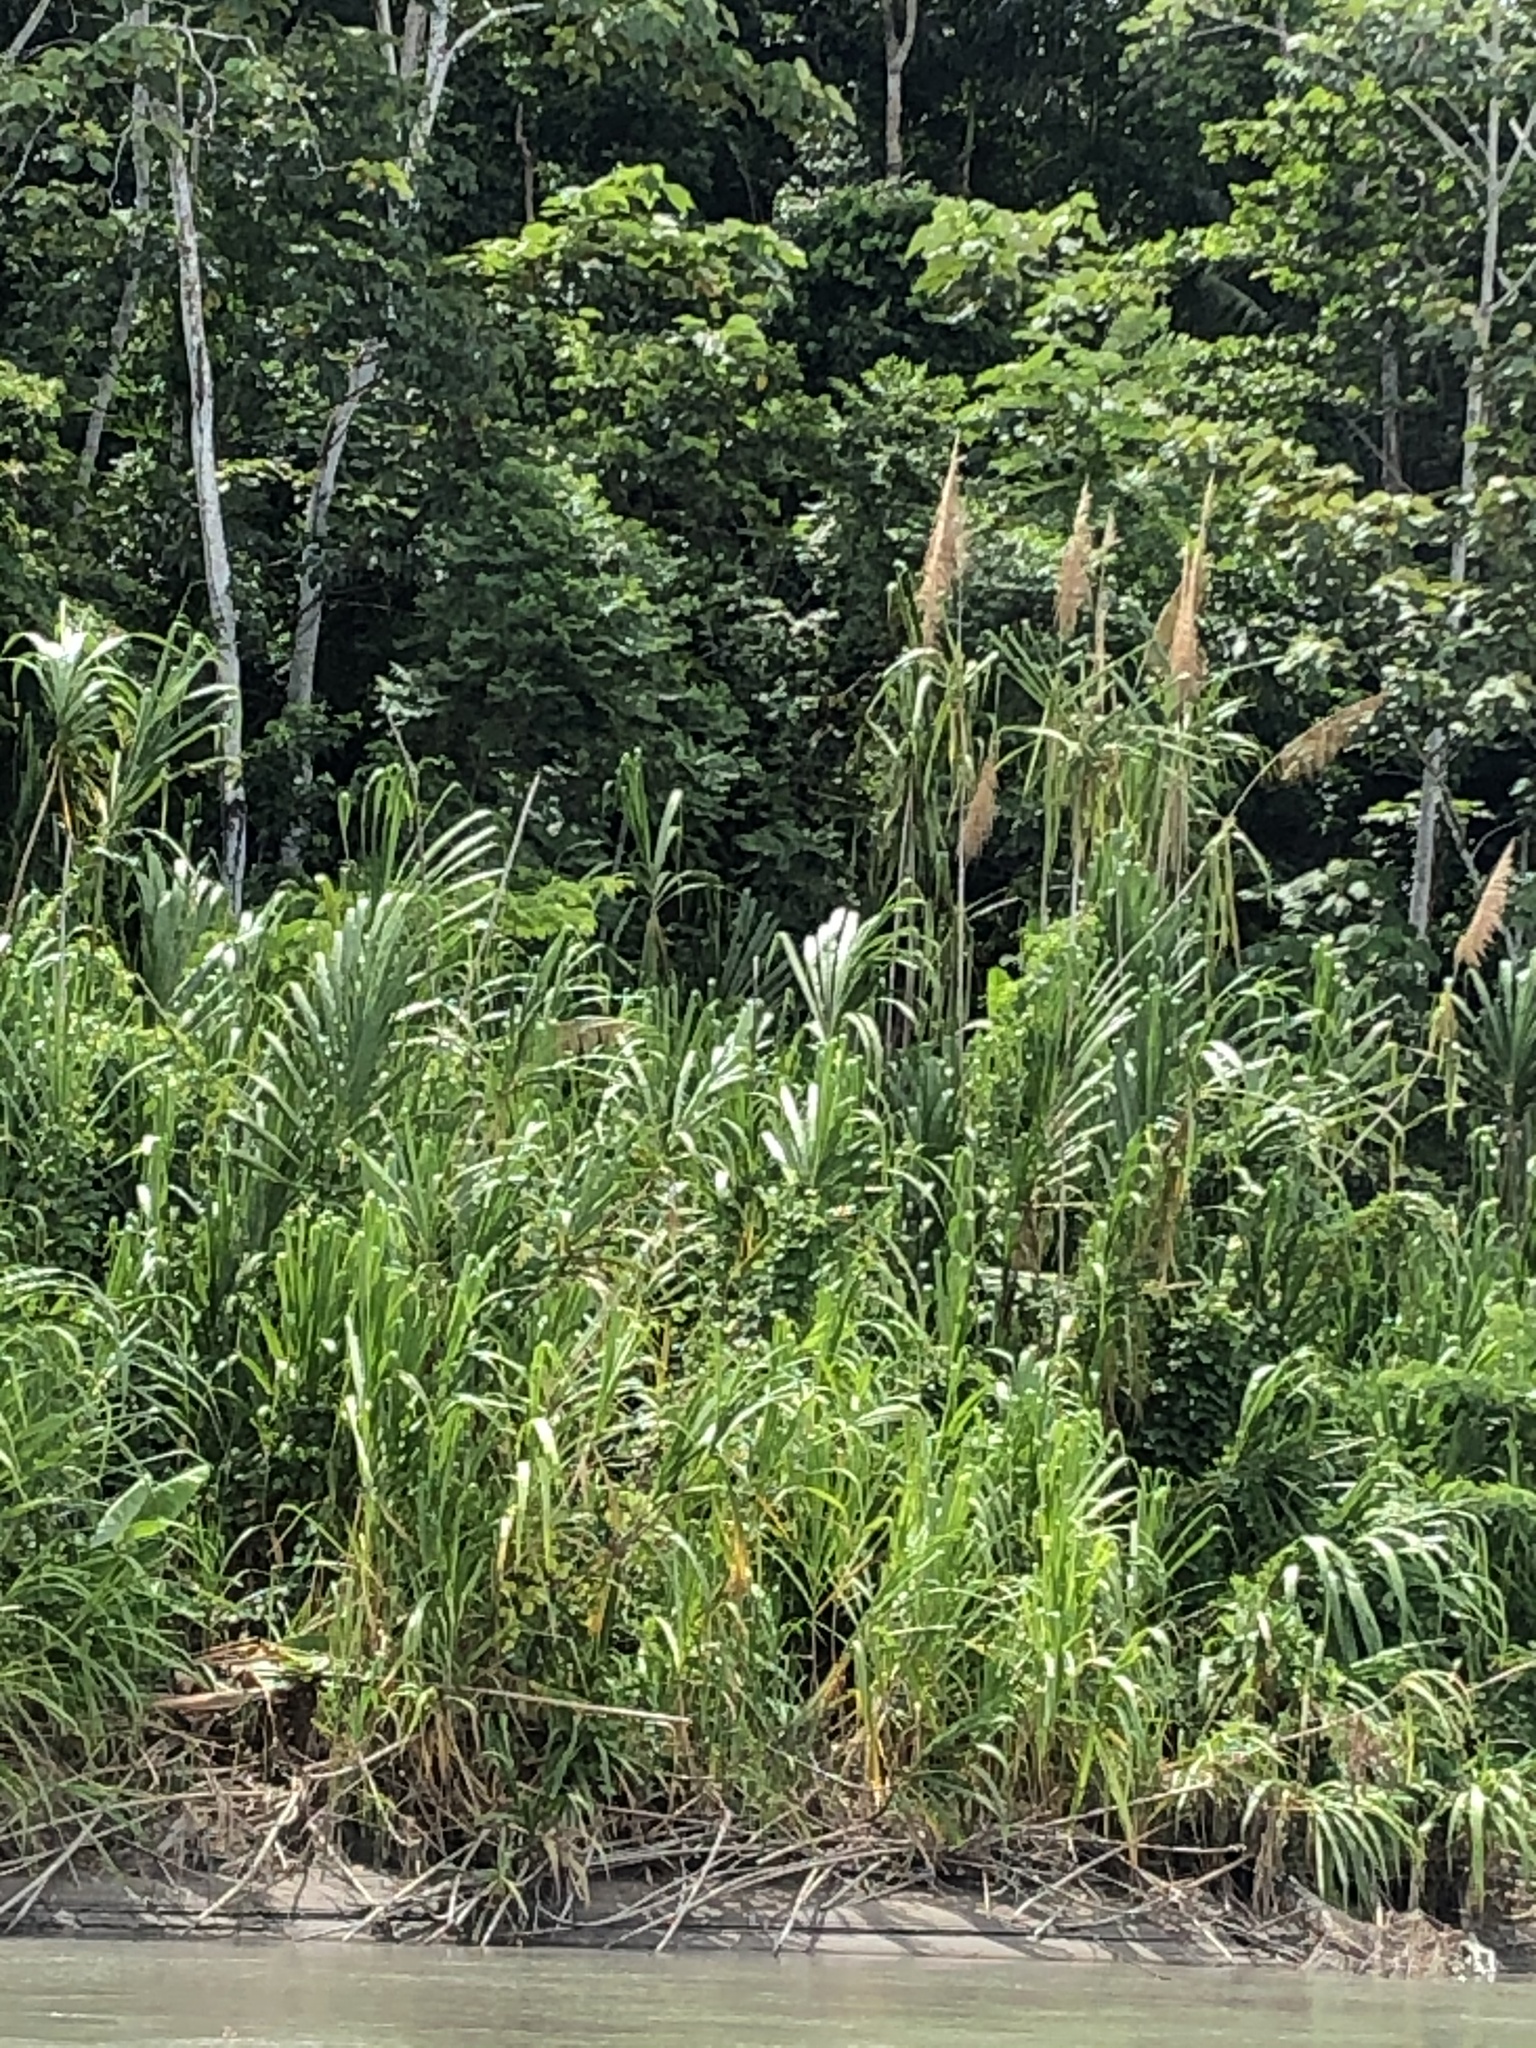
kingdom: Plantae
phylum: Tracheophyta
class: Liliopsida
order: Poales
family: Poaceae
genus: Gynerium
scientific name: Gynerium sagittatum
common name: Wild cane
